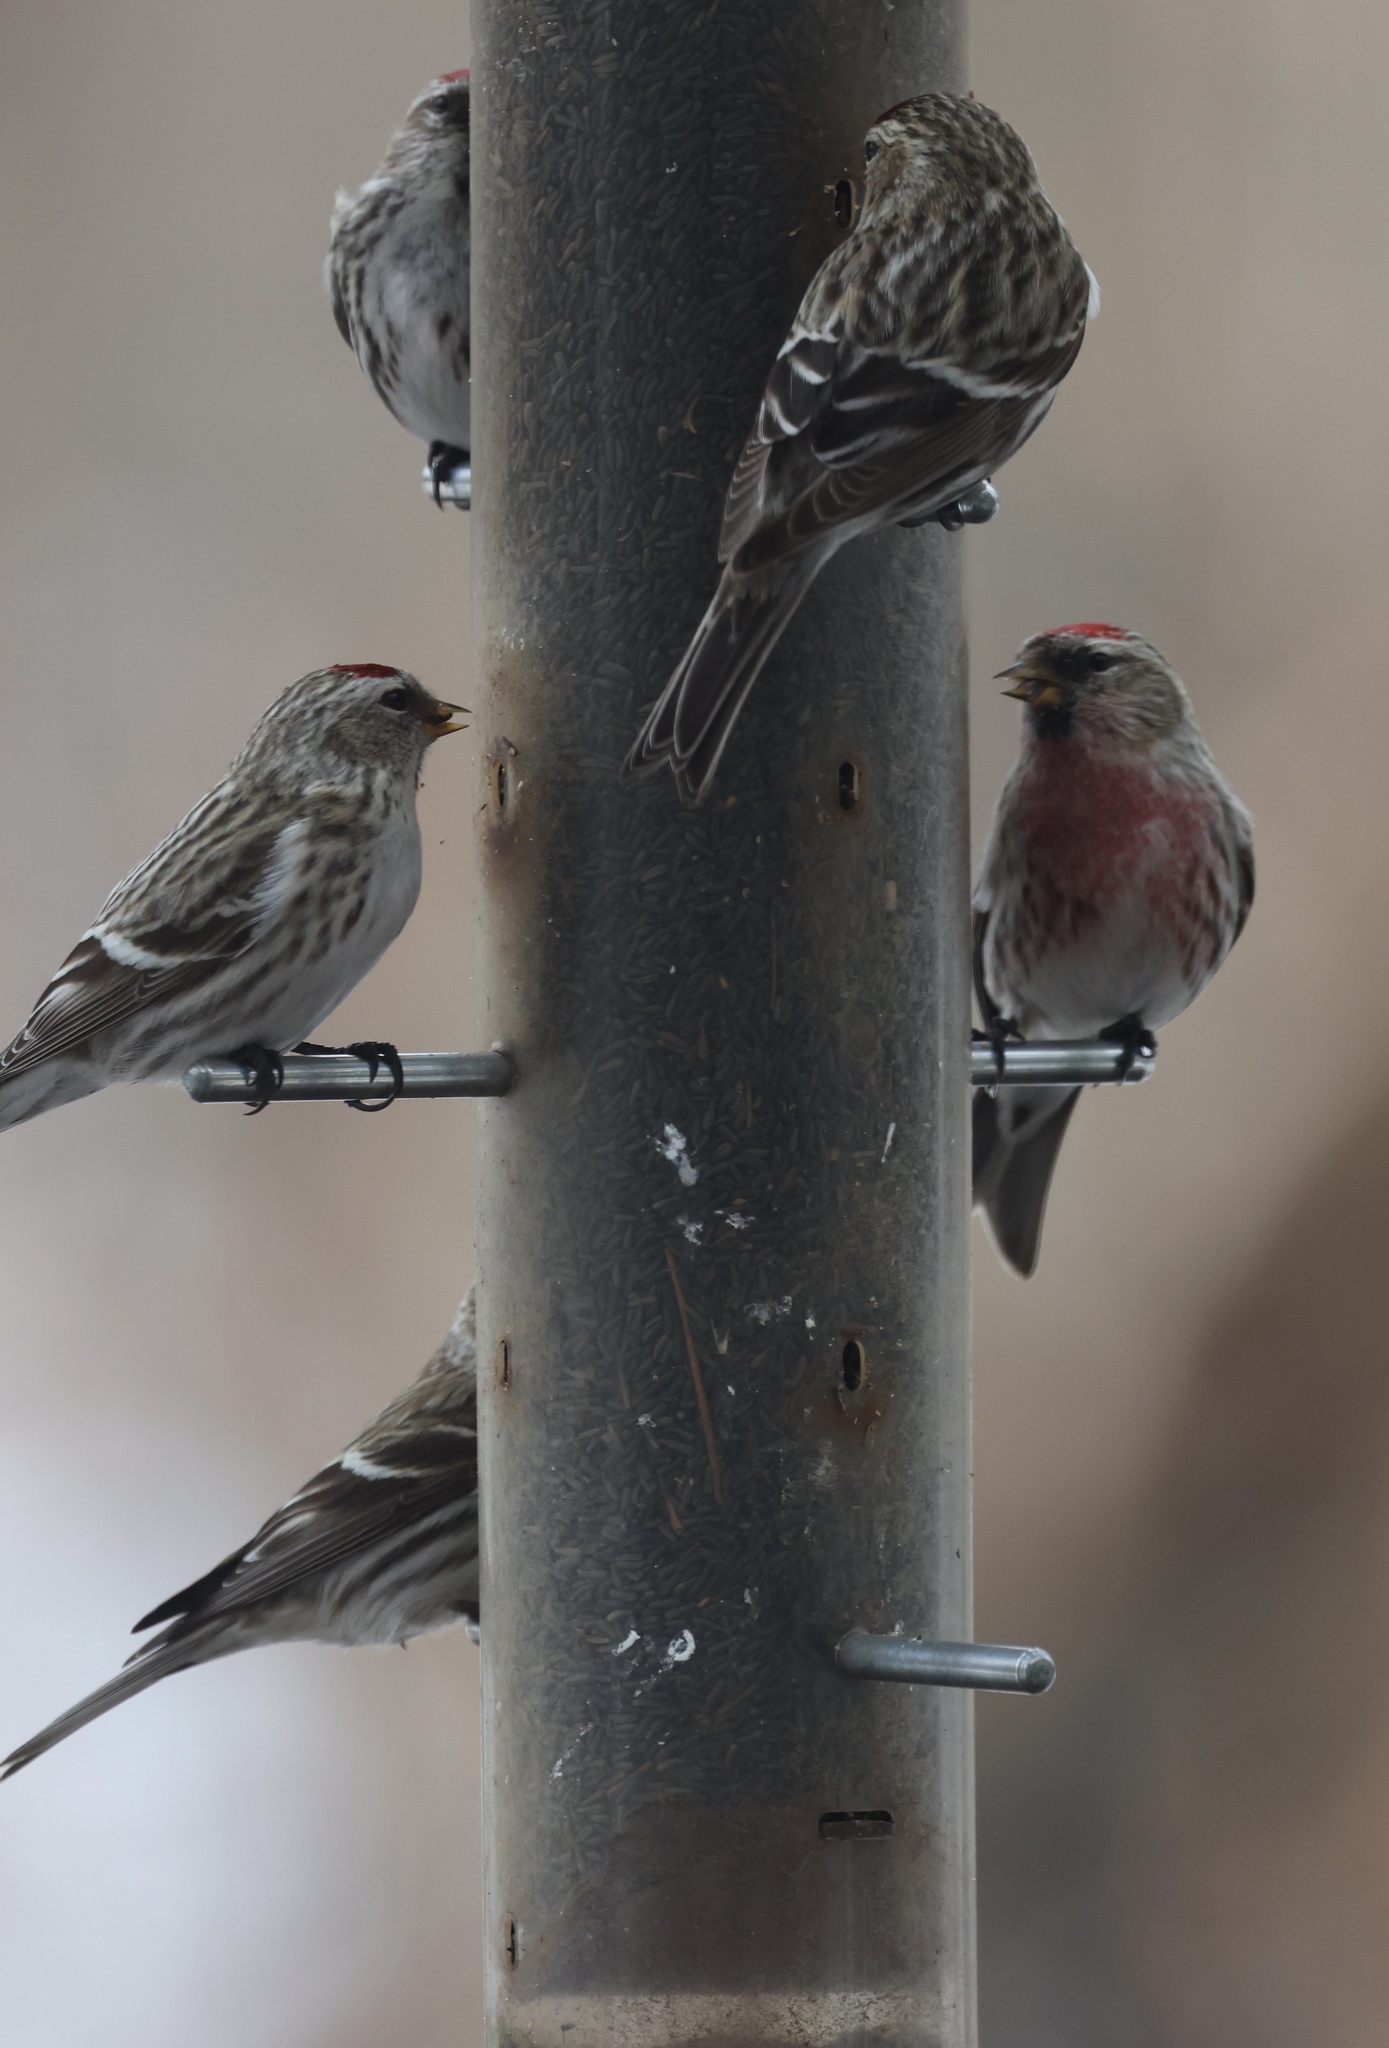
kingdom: Animalia
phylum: Chordata
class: Aves
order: Passeriformes
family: Fringillidae
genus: Acanthis
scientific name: Acanthis flammea
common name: Common redpoll
